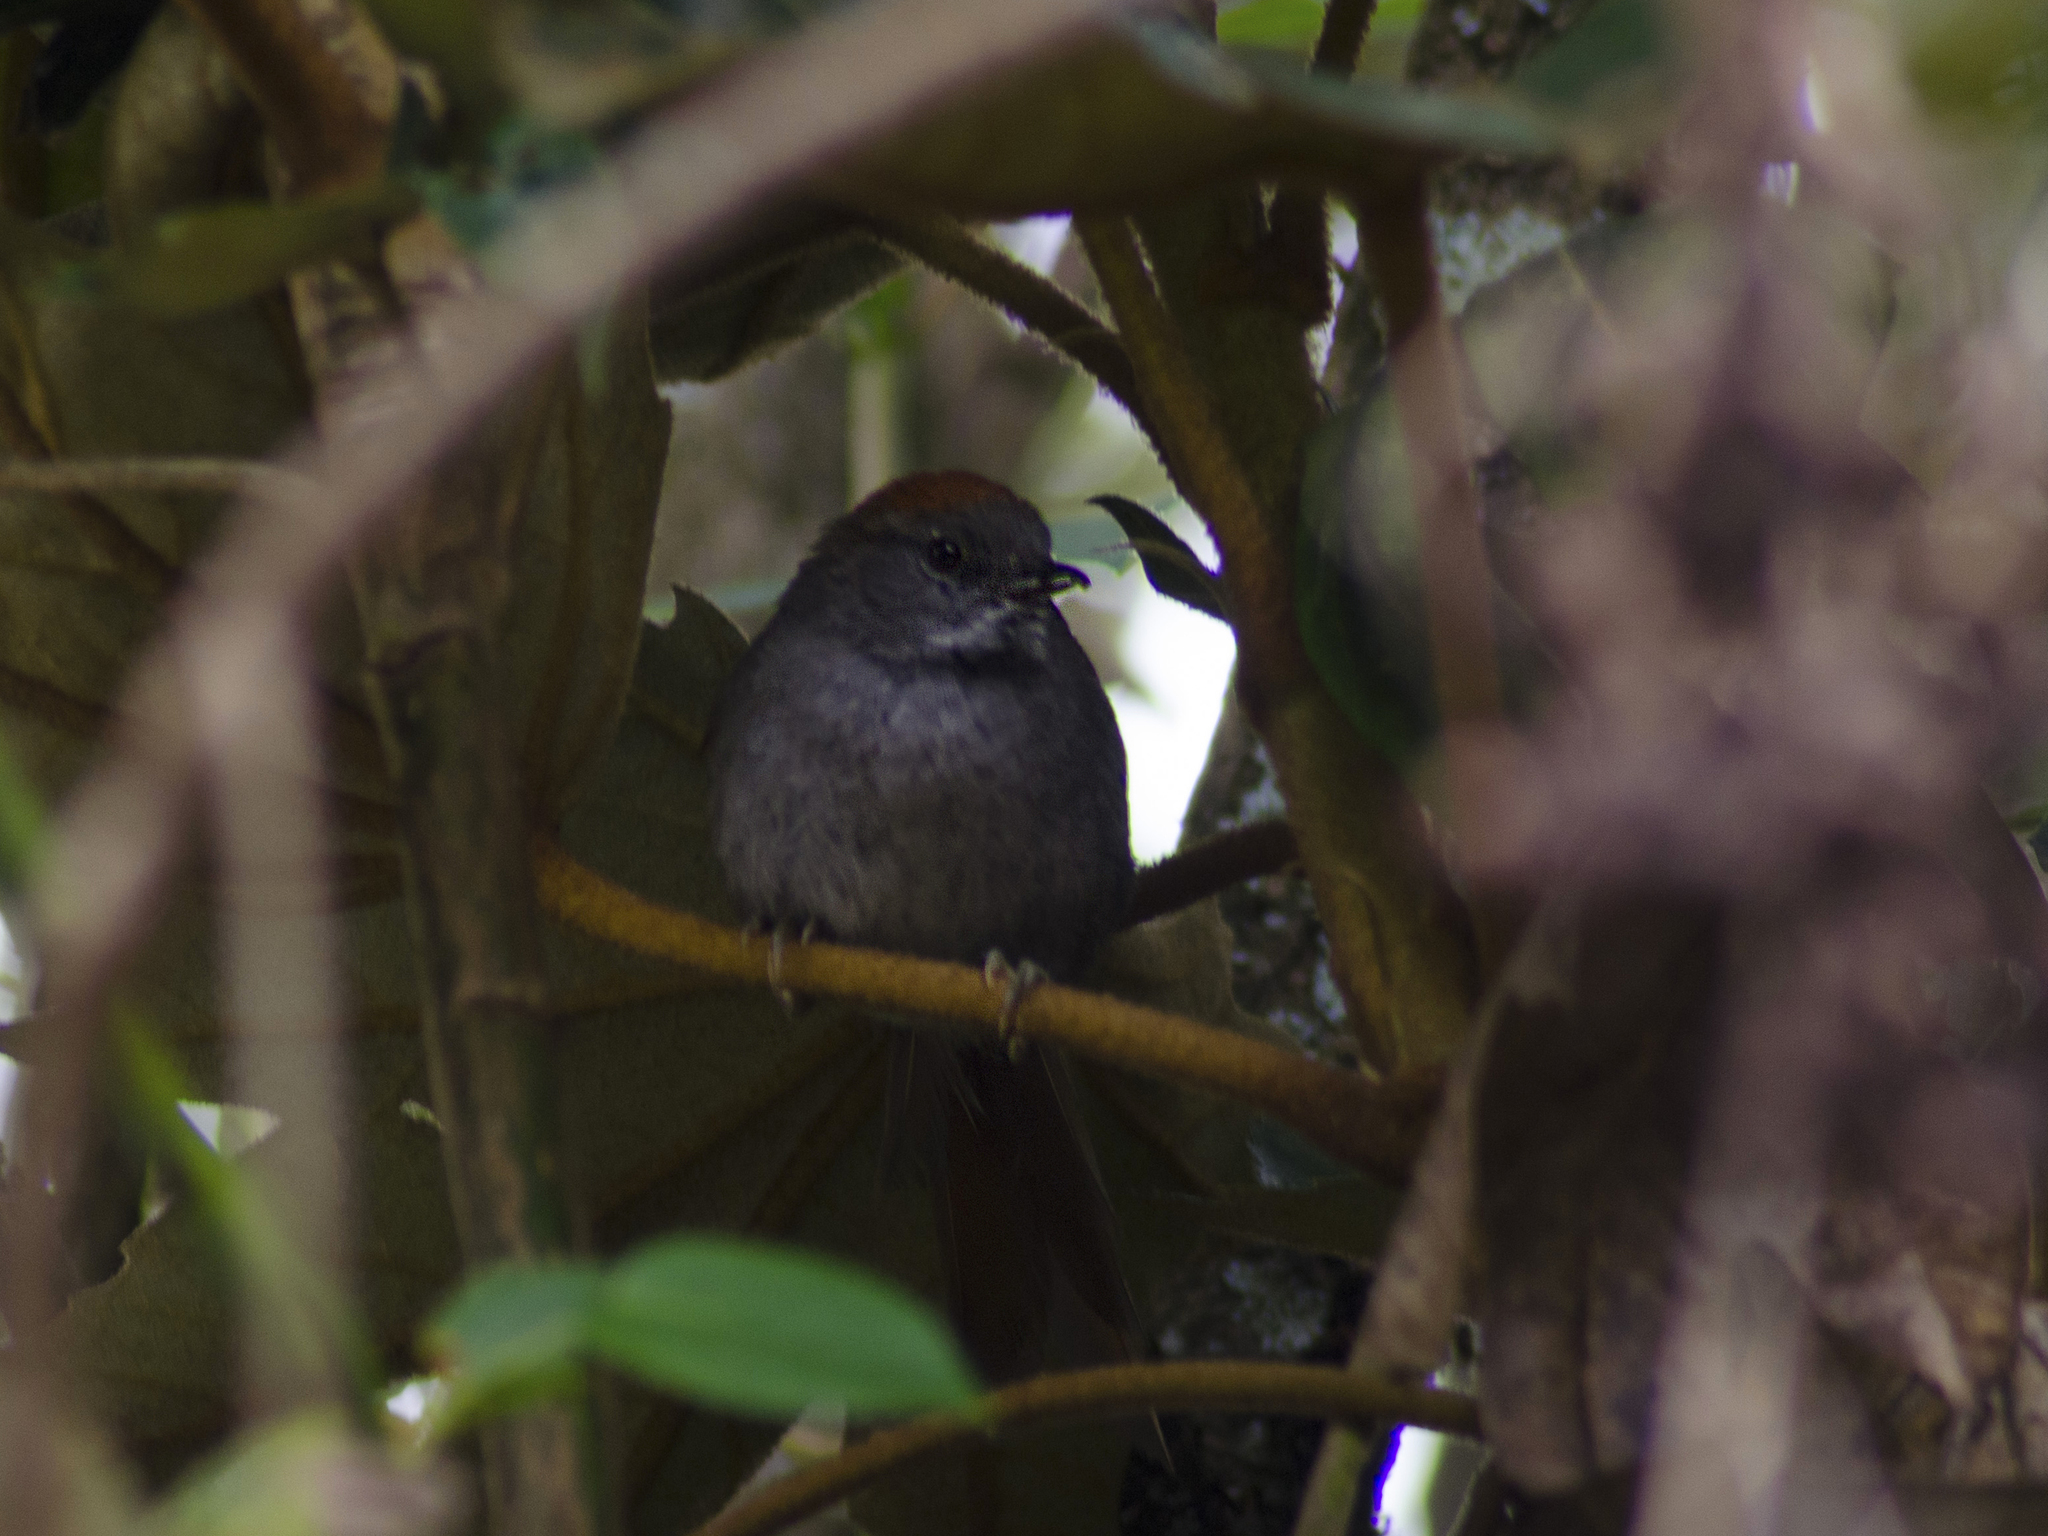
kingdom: Animalia
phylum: Chordata
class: Aves
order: Passeriformes
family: Furnariidae
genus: Synallaxis
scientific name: Synallaxis azarae
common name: Azara's spinetail
